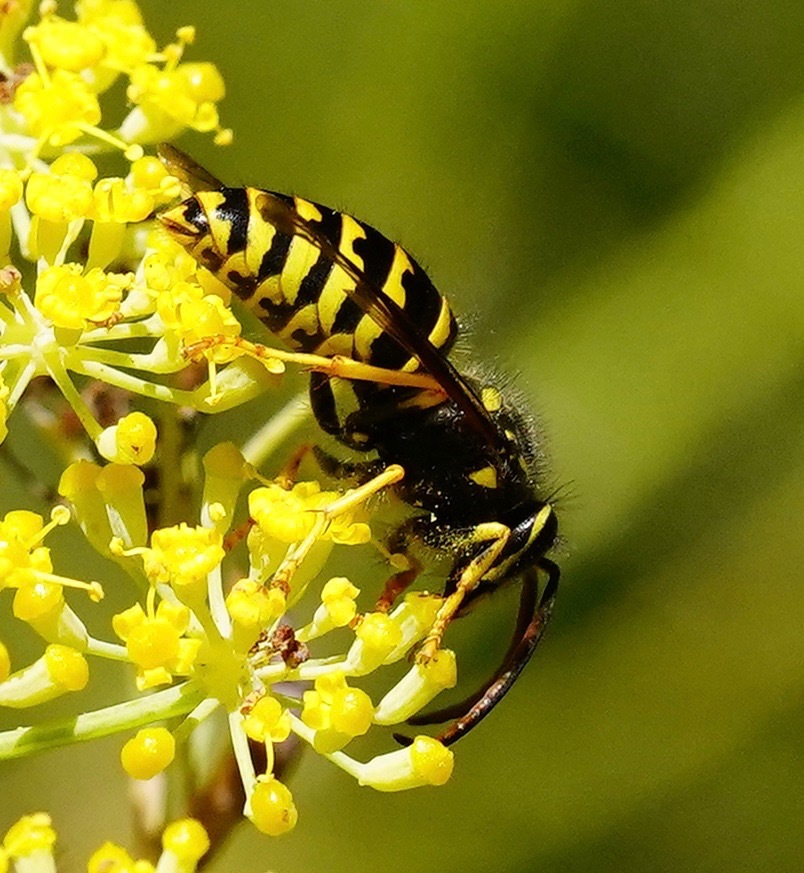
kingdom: Animalia
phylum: Arthropoda
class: Insecta
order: Hymenoptera
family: Vespidae
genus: Dolichovespula
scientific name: Dolichovespula arenaria
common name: Aerial yellowjacket
